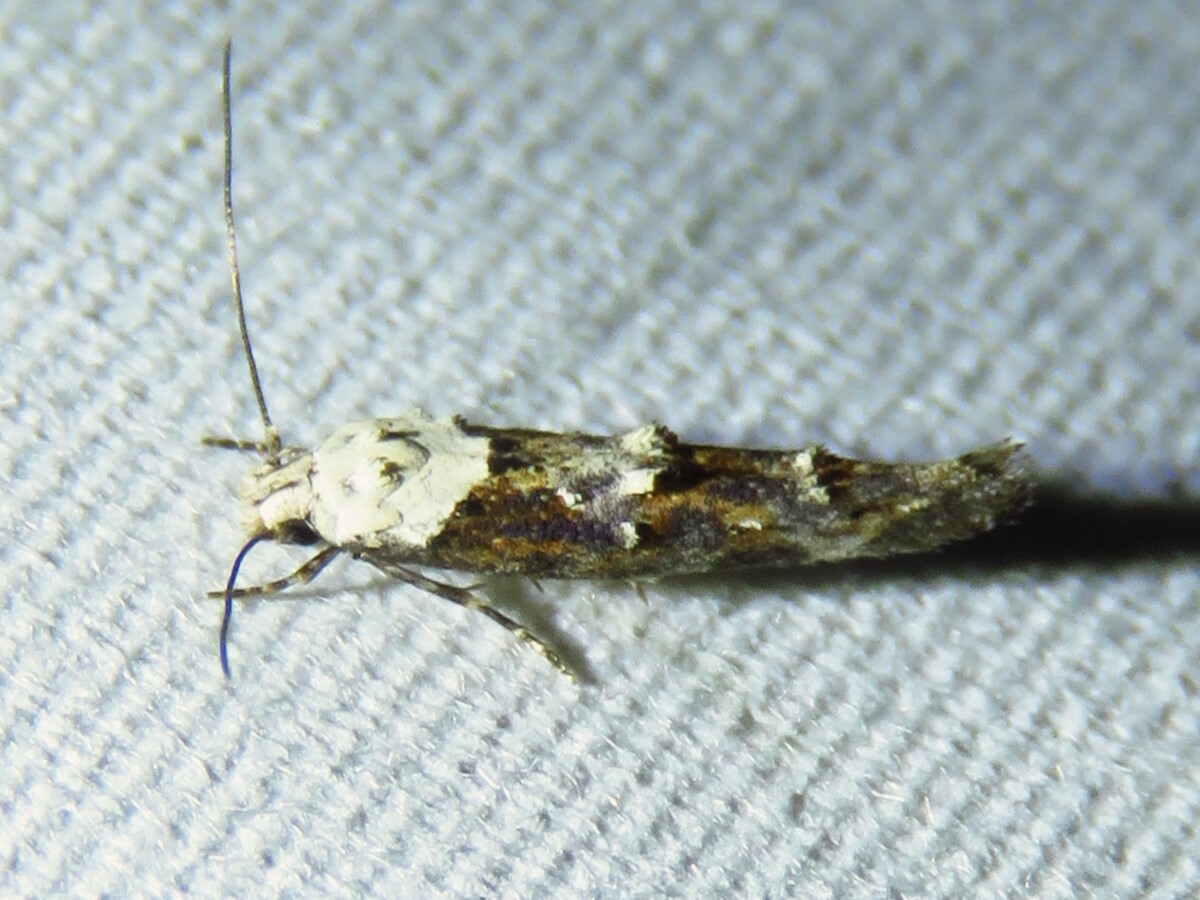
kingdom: Animalia
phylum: Arthropoda
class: Insecta
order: Lepidoptera
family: Momphidae
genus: Mompha
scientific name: Mompha albocapitella
